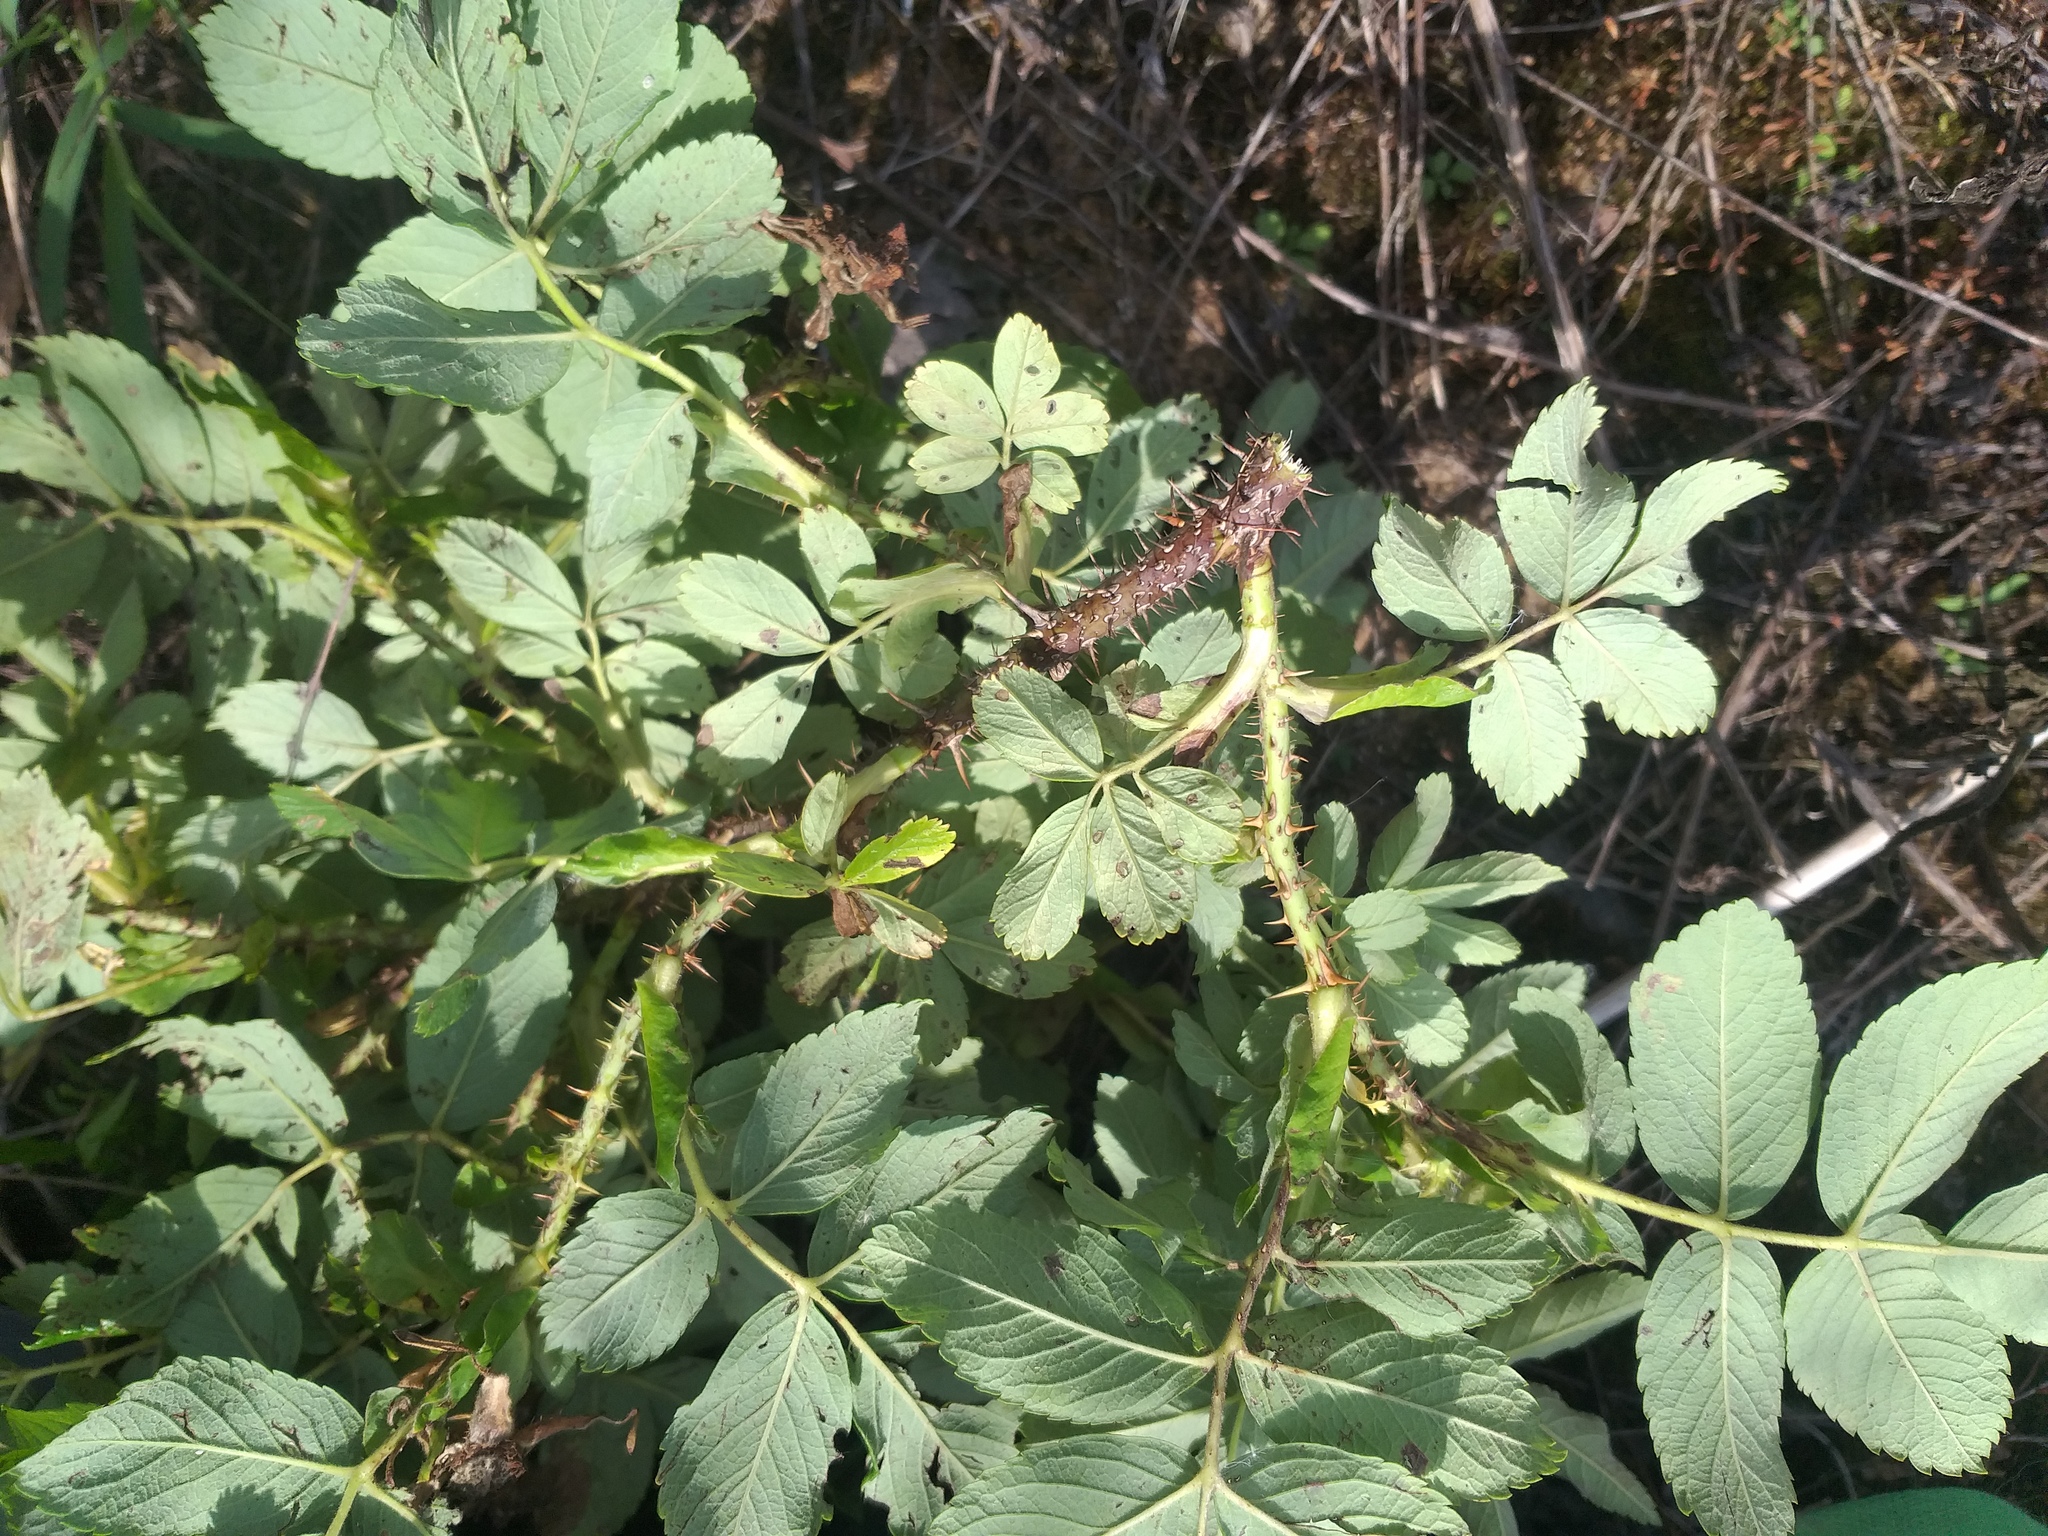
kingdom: Plantae
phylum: Tracheophyta
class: Magnoliopsida
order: Rosales
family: Rosaceae
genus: Rosa
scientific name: Rosa majorugosa
